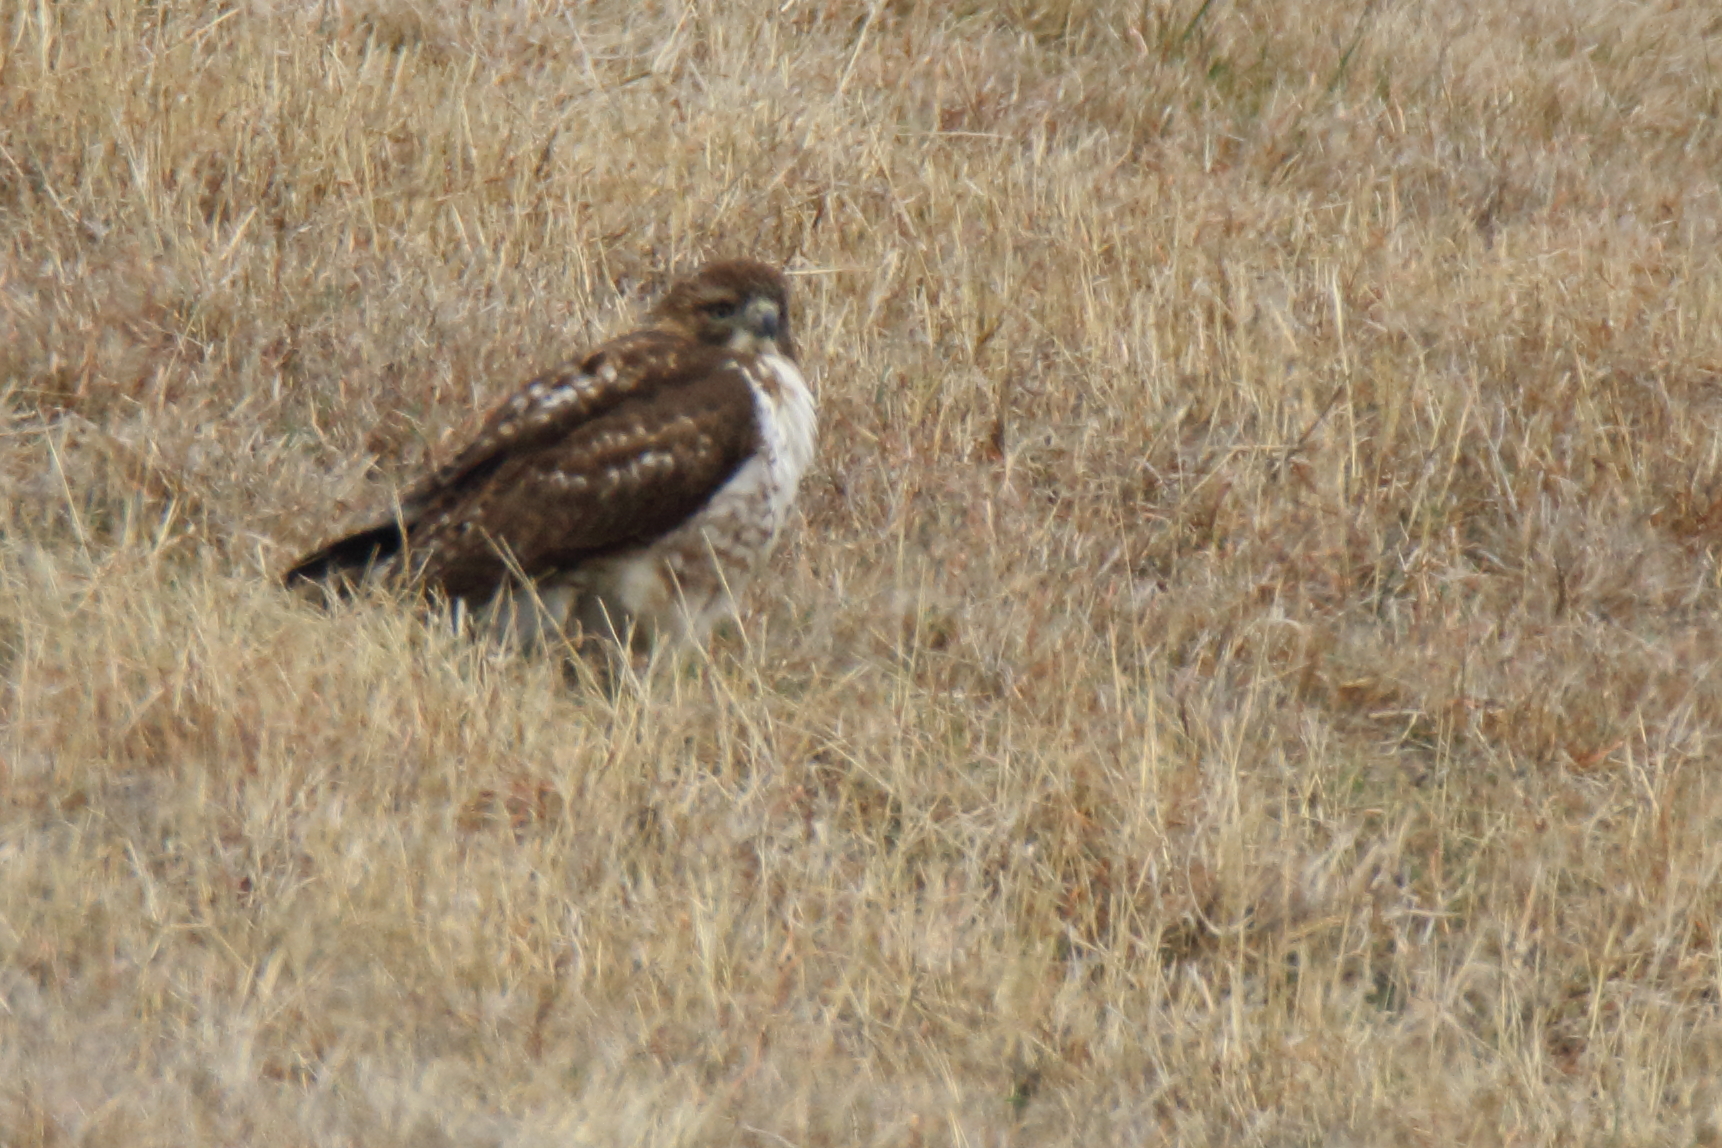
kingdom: Animalia
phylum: Chordata
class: Aves
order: Accipitriformes
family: Accipitridae
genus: Buteo
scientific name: Buteo jamaicensis
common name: Red-tailed hawk
